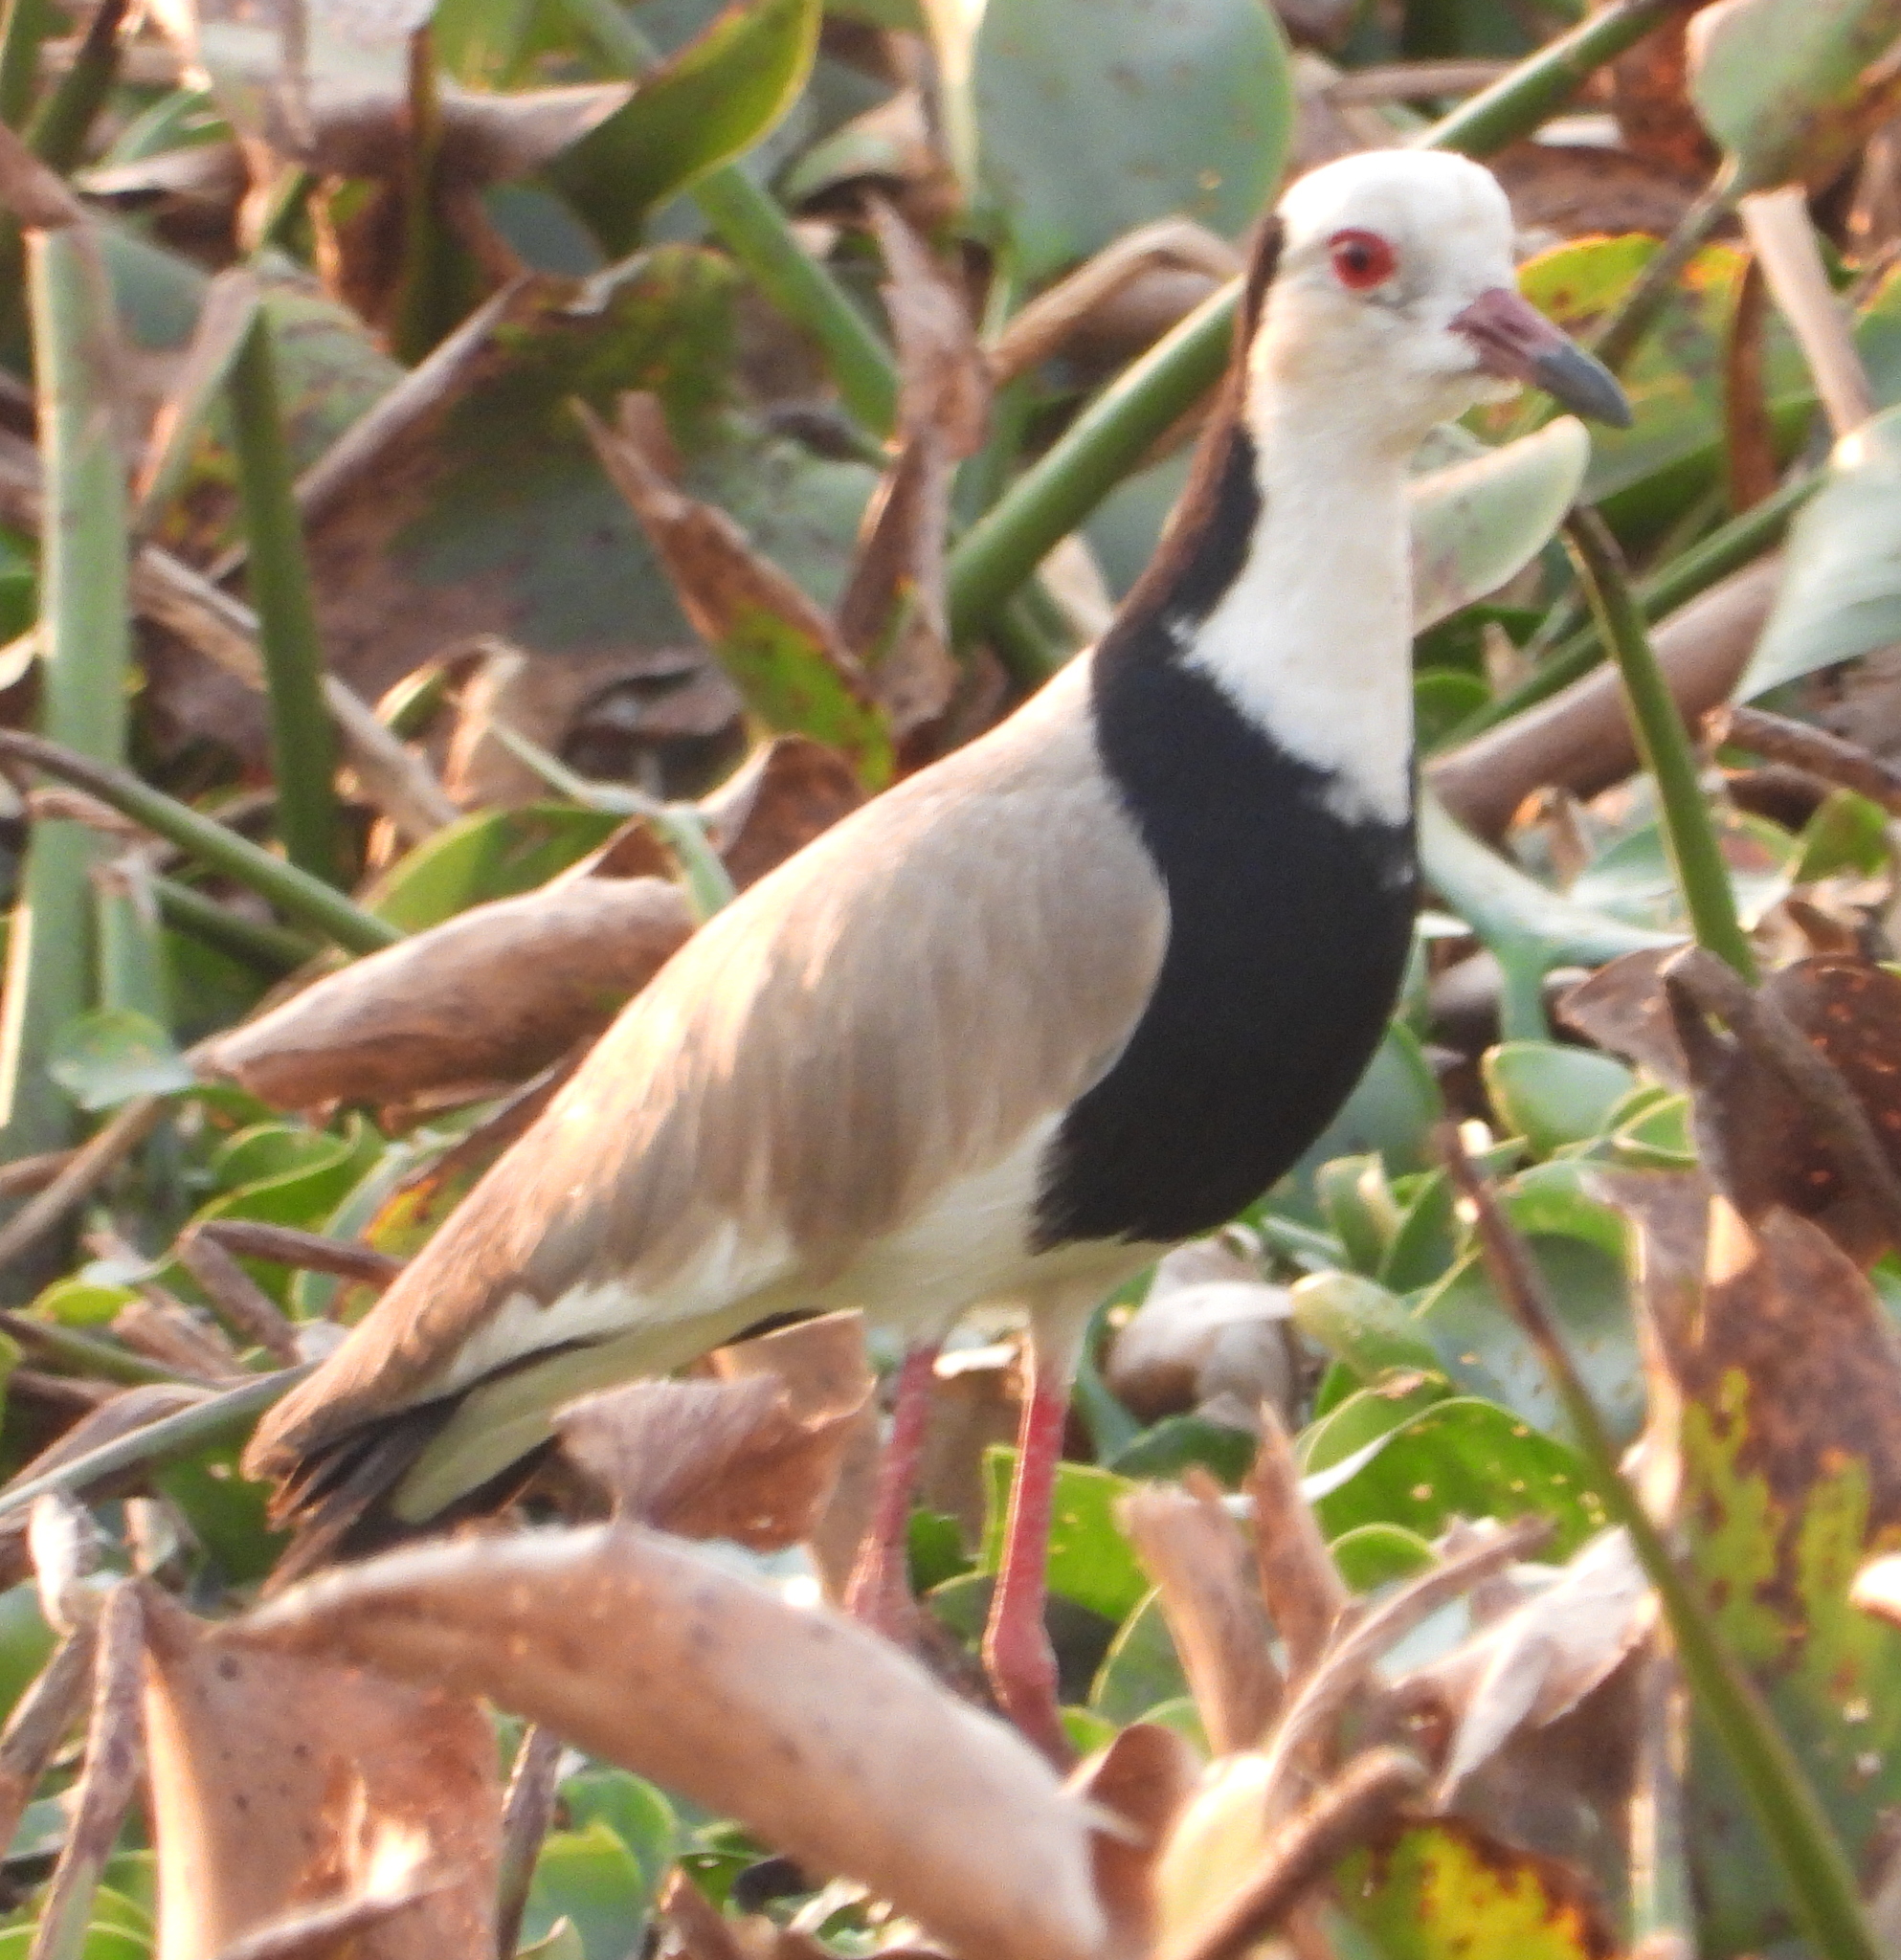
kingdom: Animalia
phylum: Chordata
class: Aves
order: Charadriiformes
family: Charadriidae
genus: Vanellus
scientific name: Vanellus crassirostris
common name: Long-toed lapwing
